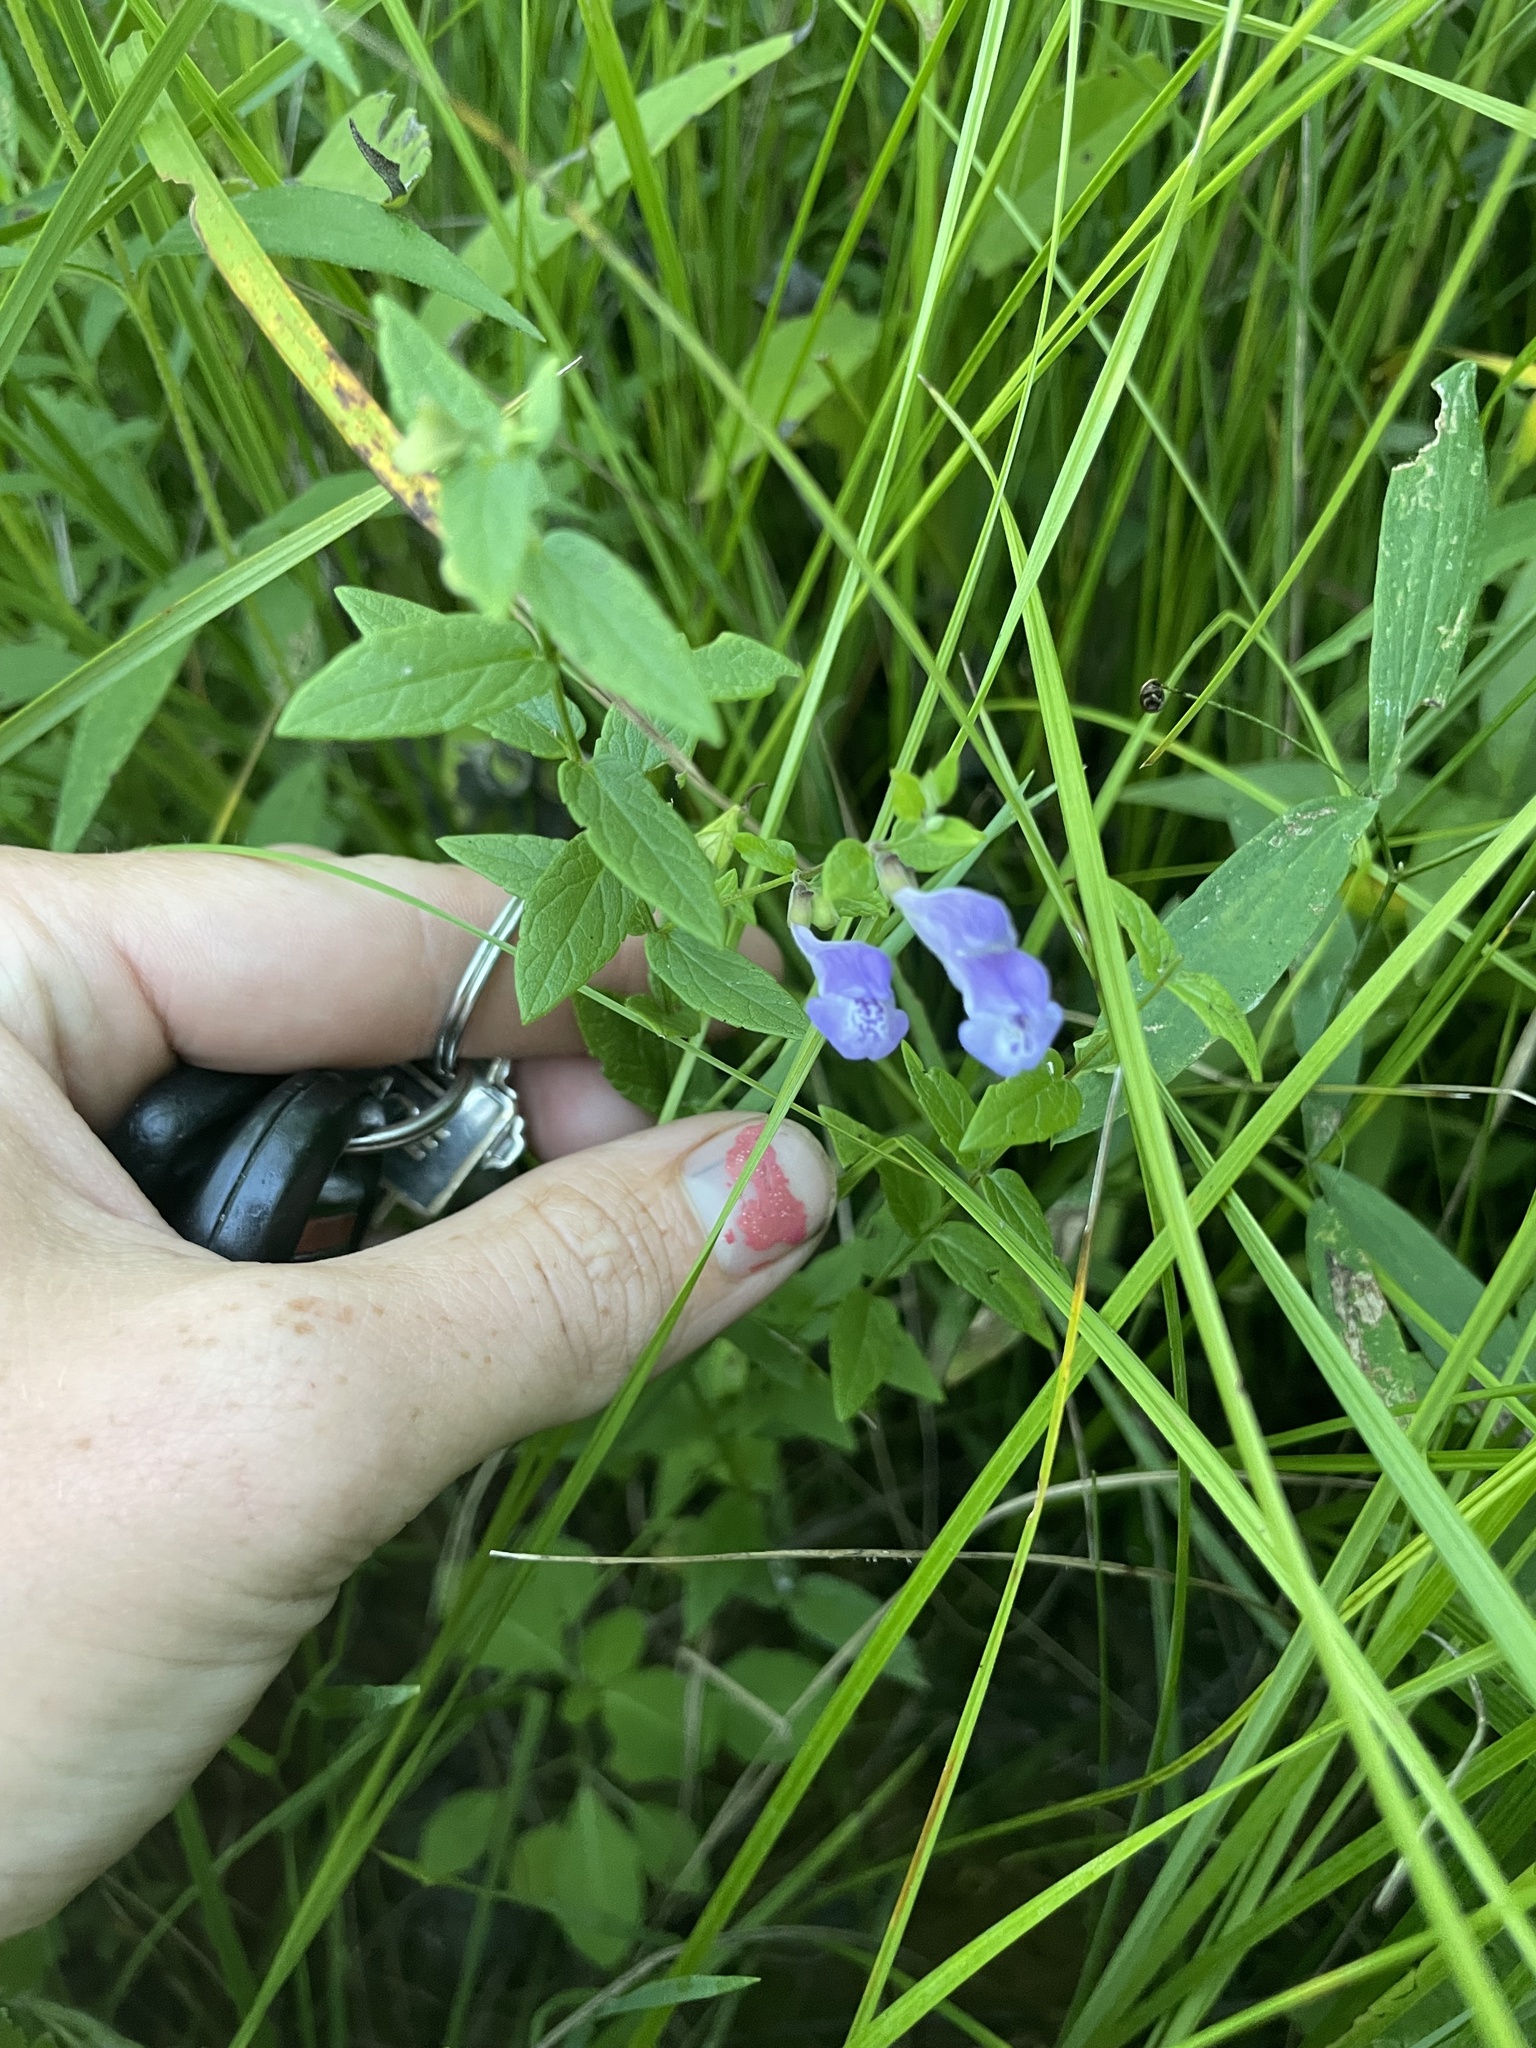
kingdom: Plantae
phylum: Tracheophyta
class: Magnoliopsida
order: Lamiales
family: Lamiaceae
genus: Scutellaria
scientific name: Scutellaria galericulata
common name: Skullcap
